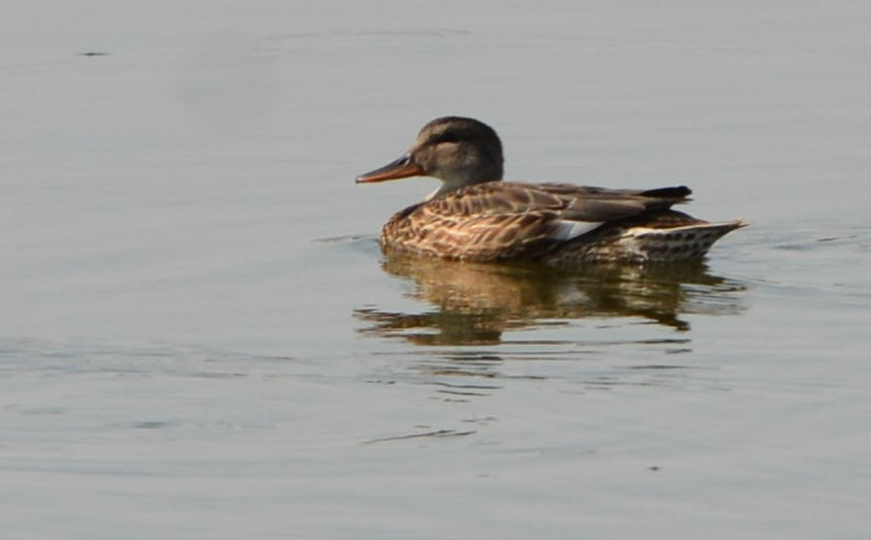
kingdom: Animalia
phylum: Chordata
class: Aves
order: Anseriformes
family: Anatidae
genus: Mareca
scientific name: Mareca strepera
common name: Gadwall
